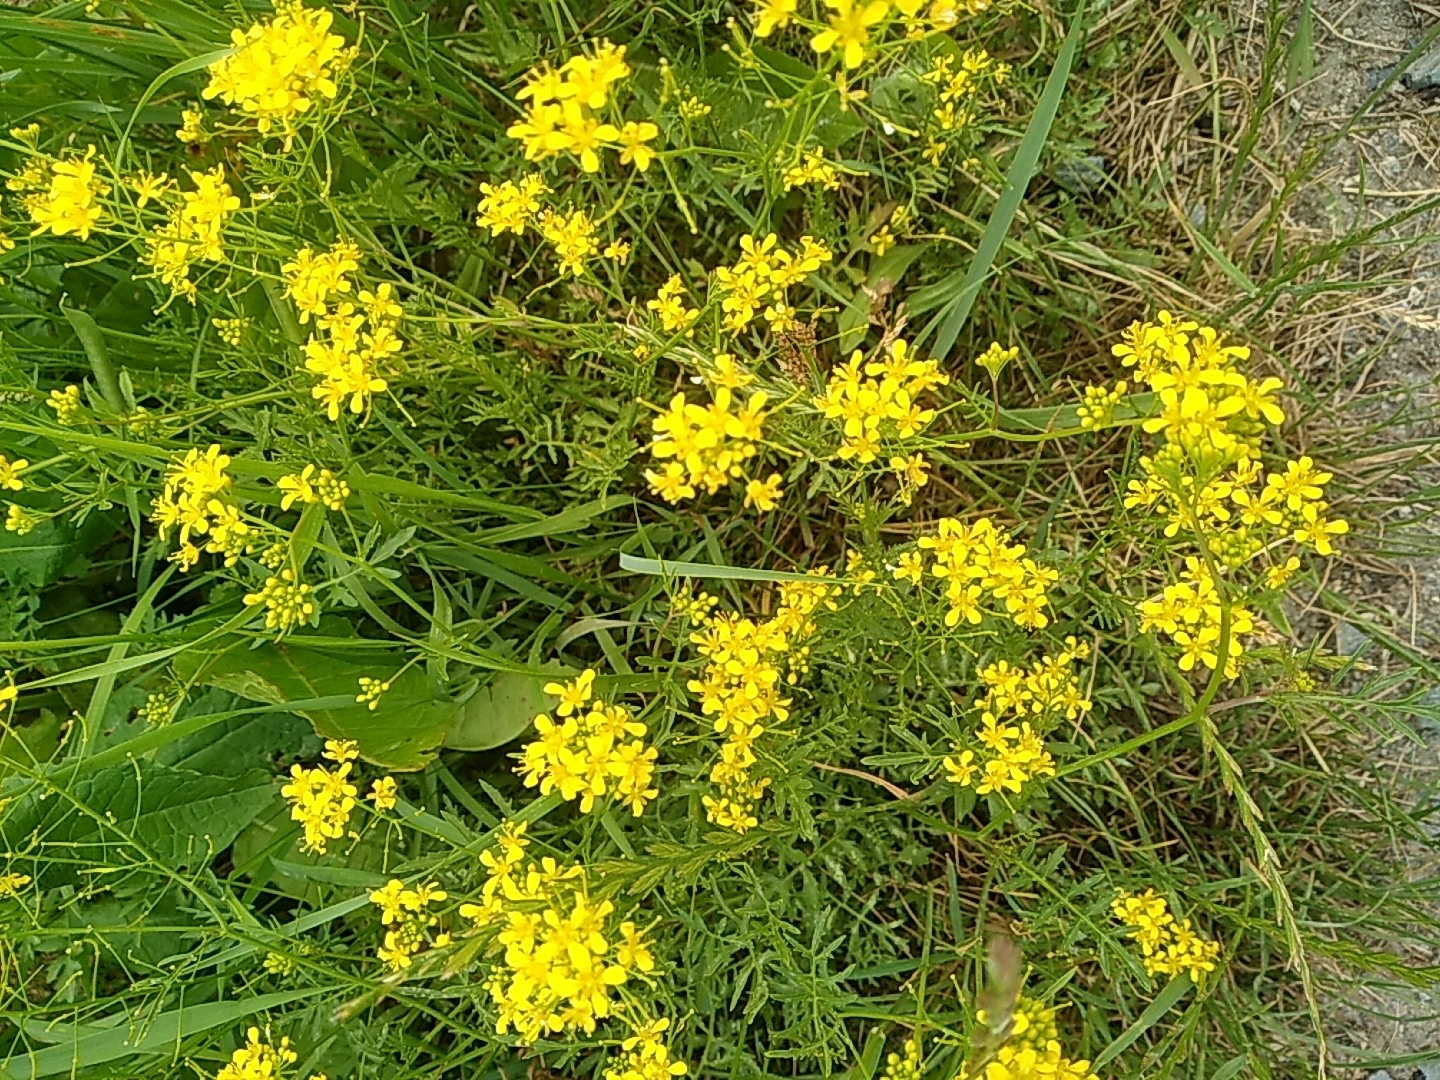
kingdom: Plantae
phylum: Tracheophyta
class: Magnoliopsida
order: Brassicales
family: Brassicaceae
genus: Rorippa
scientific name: Rorippa sylvestris
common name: Creeping yellowcress
